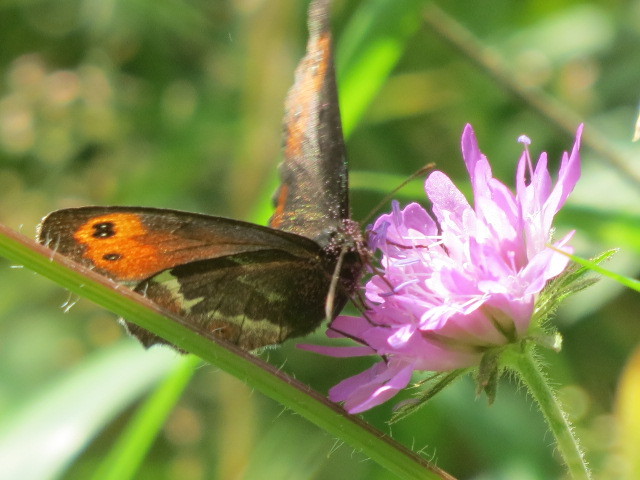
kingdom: Animalia
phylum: Arthropoda
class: Insecta
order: Lepidoptera
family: Nymphalidae
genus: Erebia
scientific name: Erebia euryale
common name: Large ringlet
